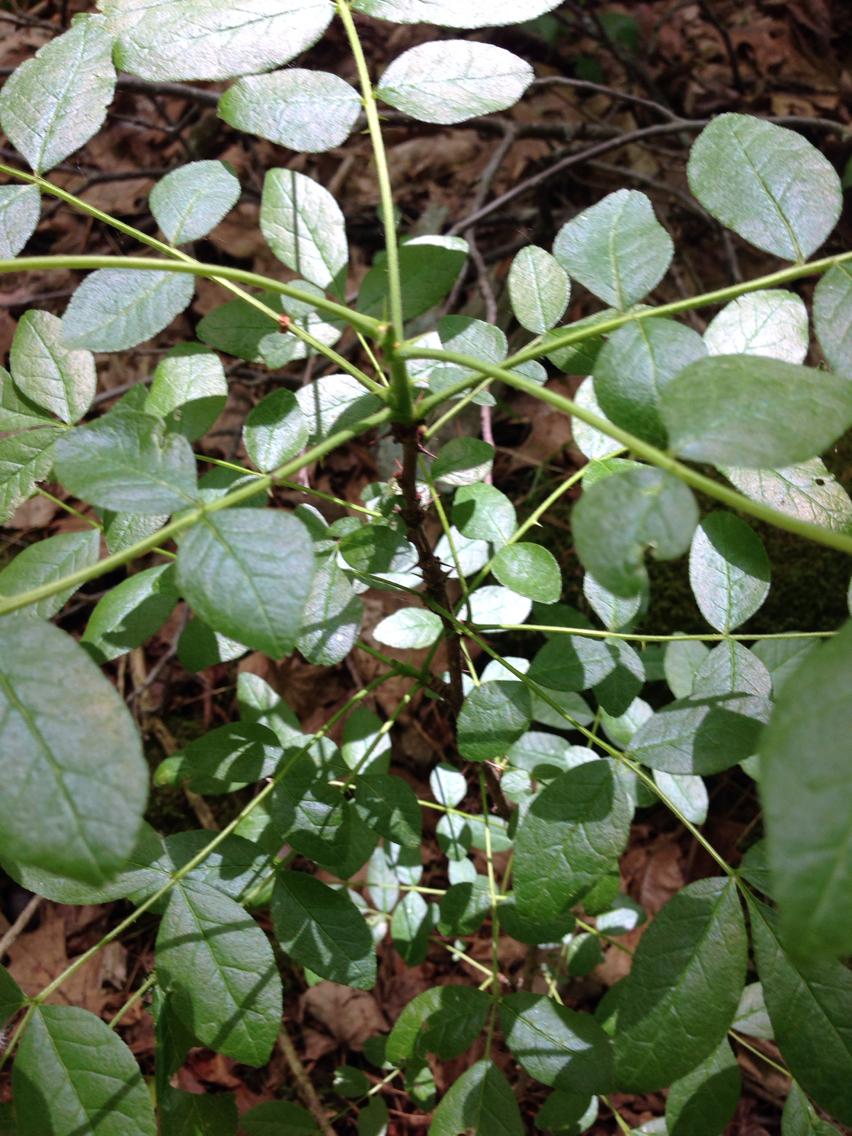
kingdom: Plantae
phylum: Tracheophyta
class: Magnoliopsida
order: Sapindales
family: Rutaceae
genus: Zanthoxylum
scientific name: Zanthoxylum americanum
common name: Northern prickly-ash
